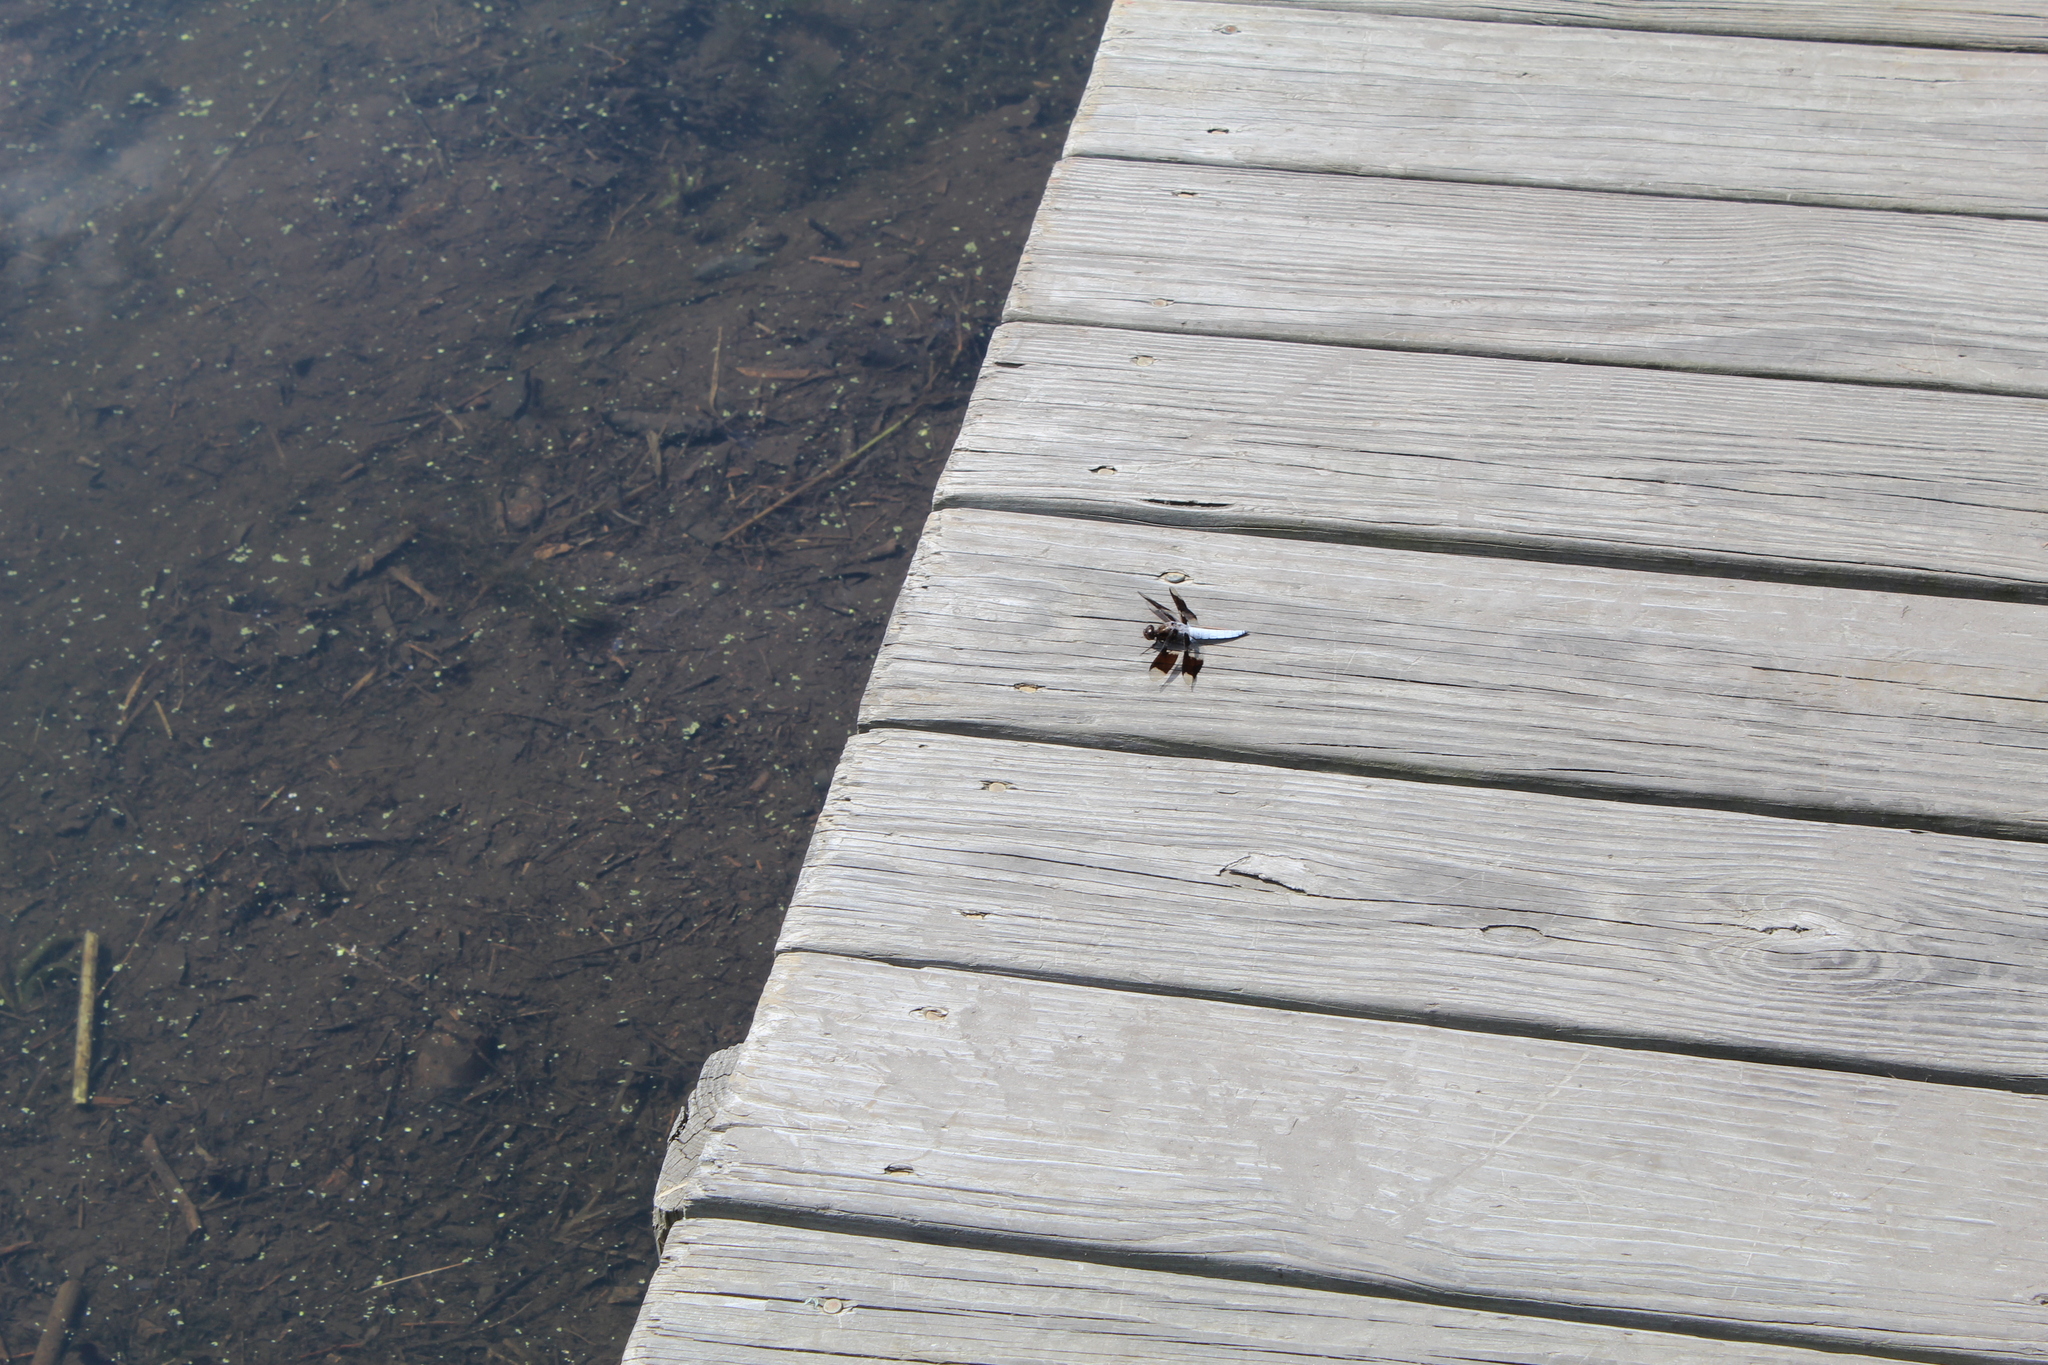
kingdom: Animalia
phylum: Arthropoda
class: Insecta
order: Odonata
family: Libellulidae
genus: Plathemis
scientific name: Plathemis lydia
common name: Common whitetail
